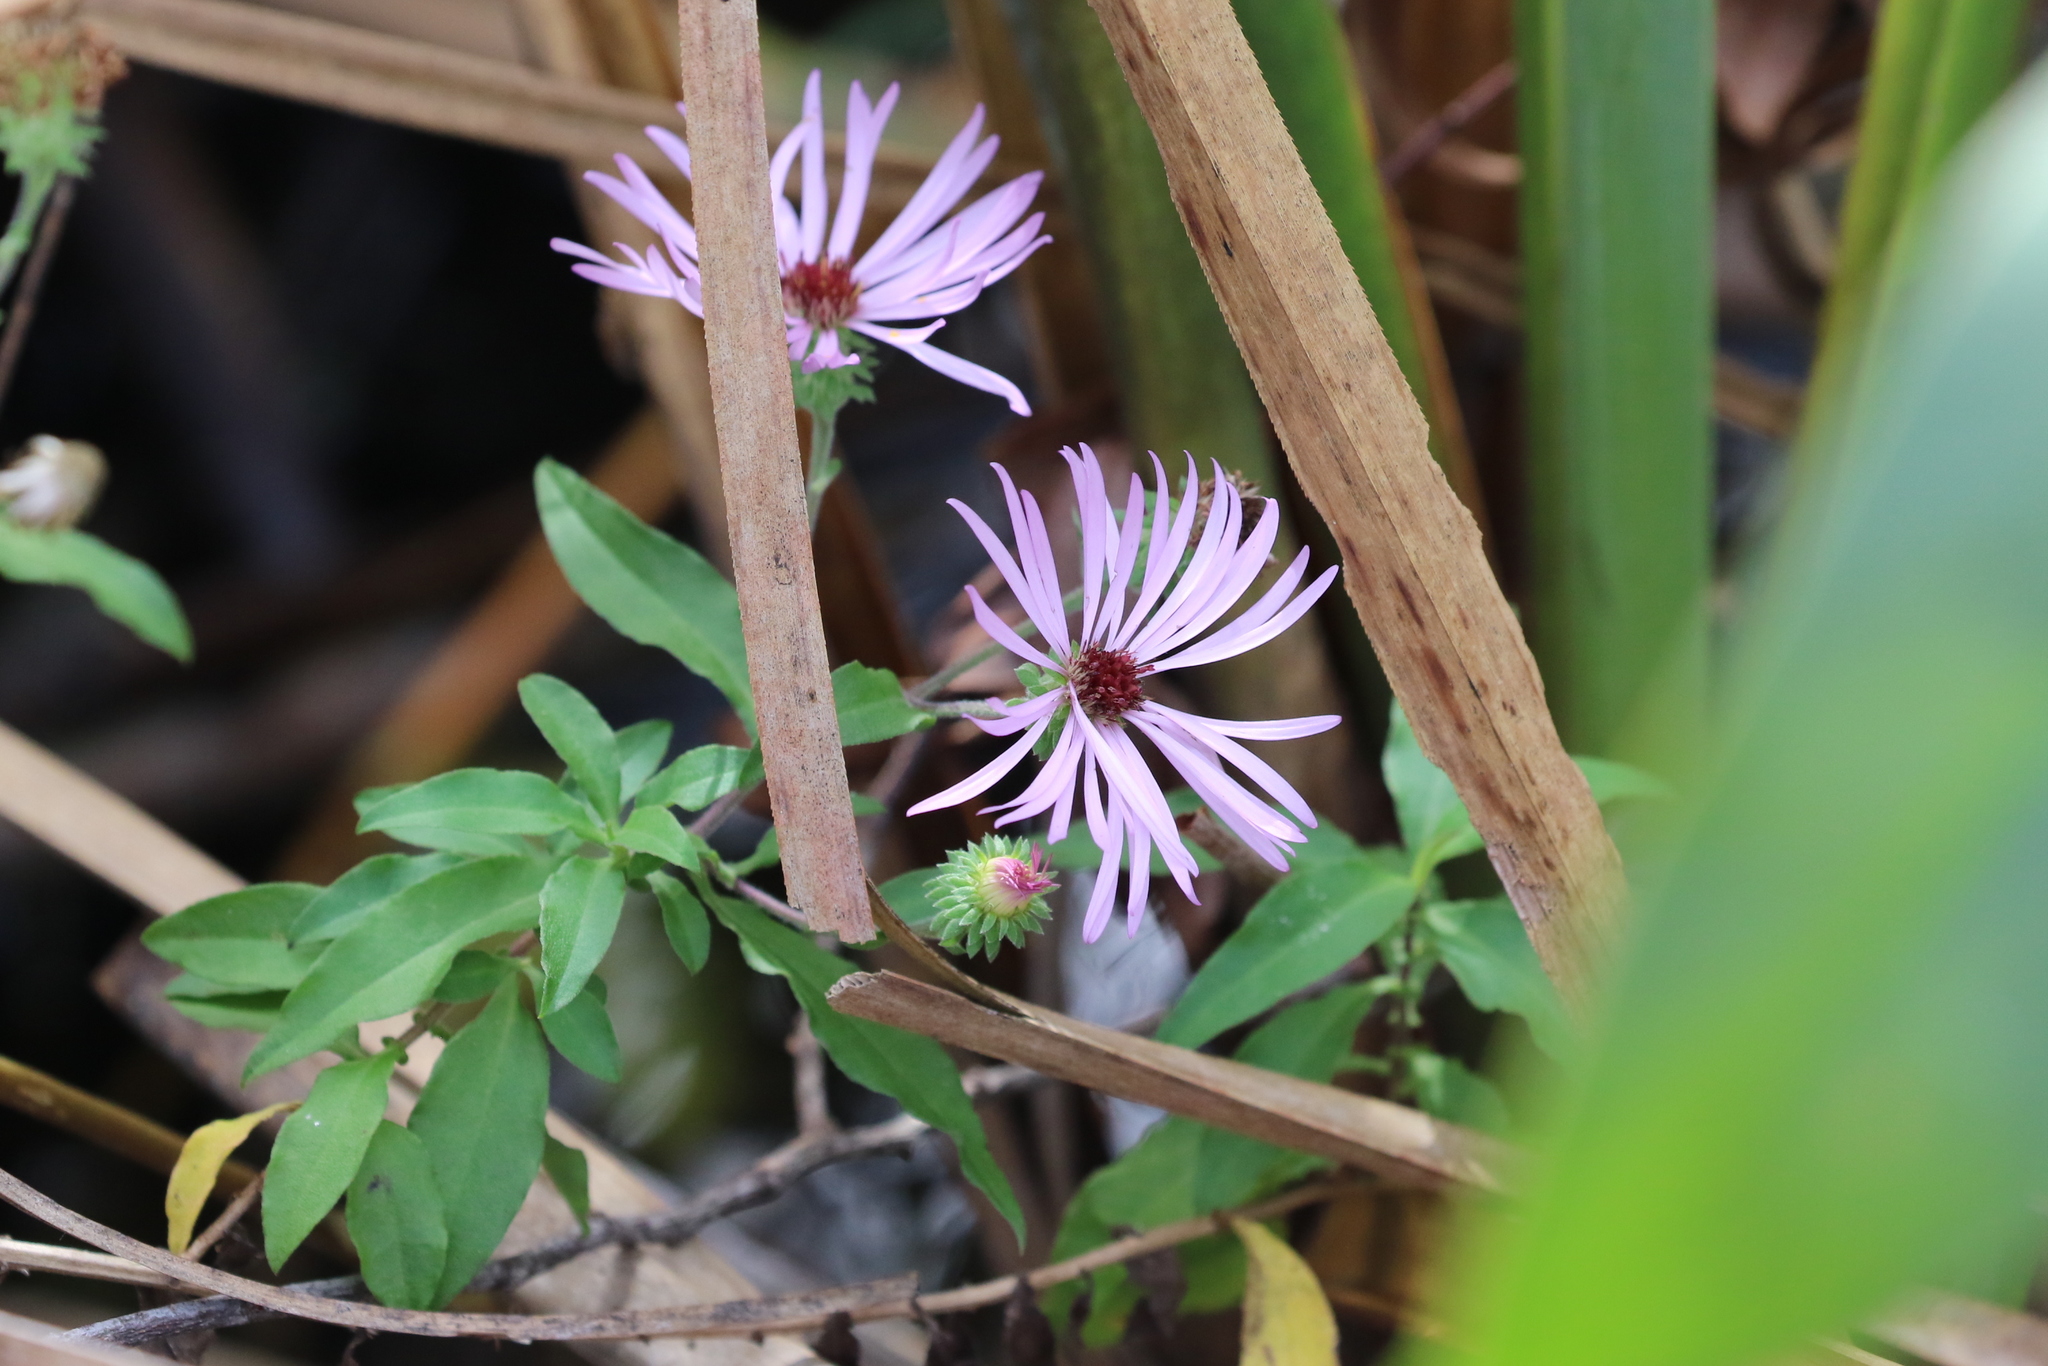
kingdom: Plantae
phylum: Tracheophyta
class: Magnoliopsida
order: Asterales
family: Asteraceae
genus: Ampelaster
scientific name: Ampelaster carolinianus
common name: Climbing aster
